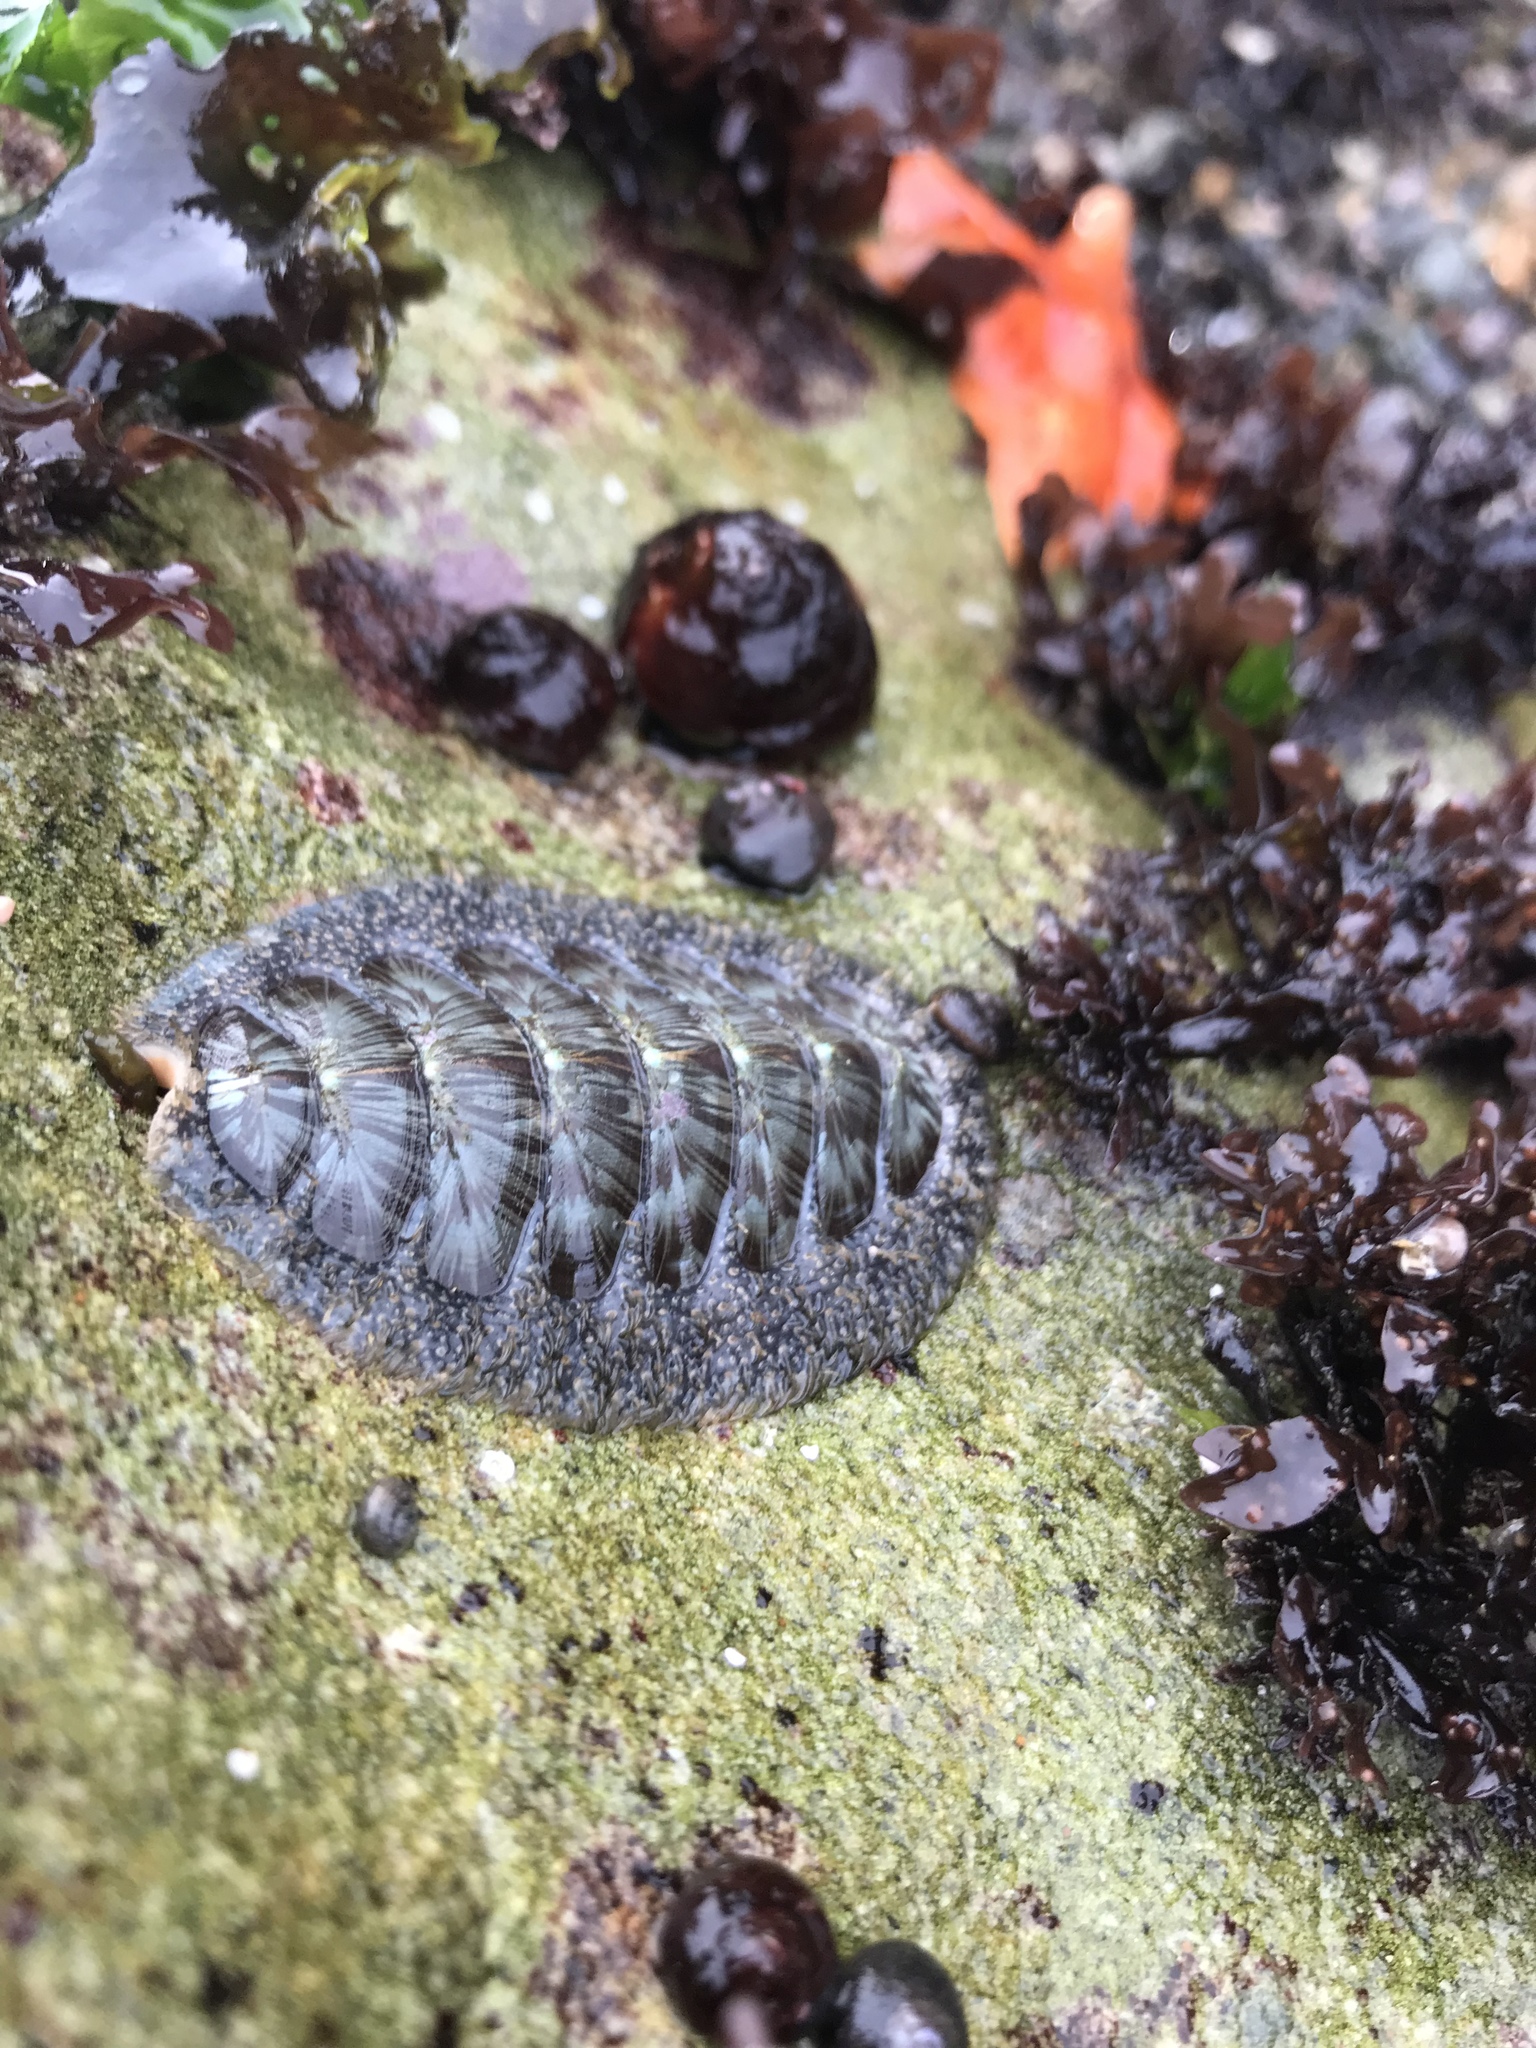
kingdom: Animalia
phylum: Mollusca
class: Polyplacophora
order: Chitonida
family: Mopaliidae
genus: Mopalia
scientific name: Mopalia lignosa
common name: Woody chiton
